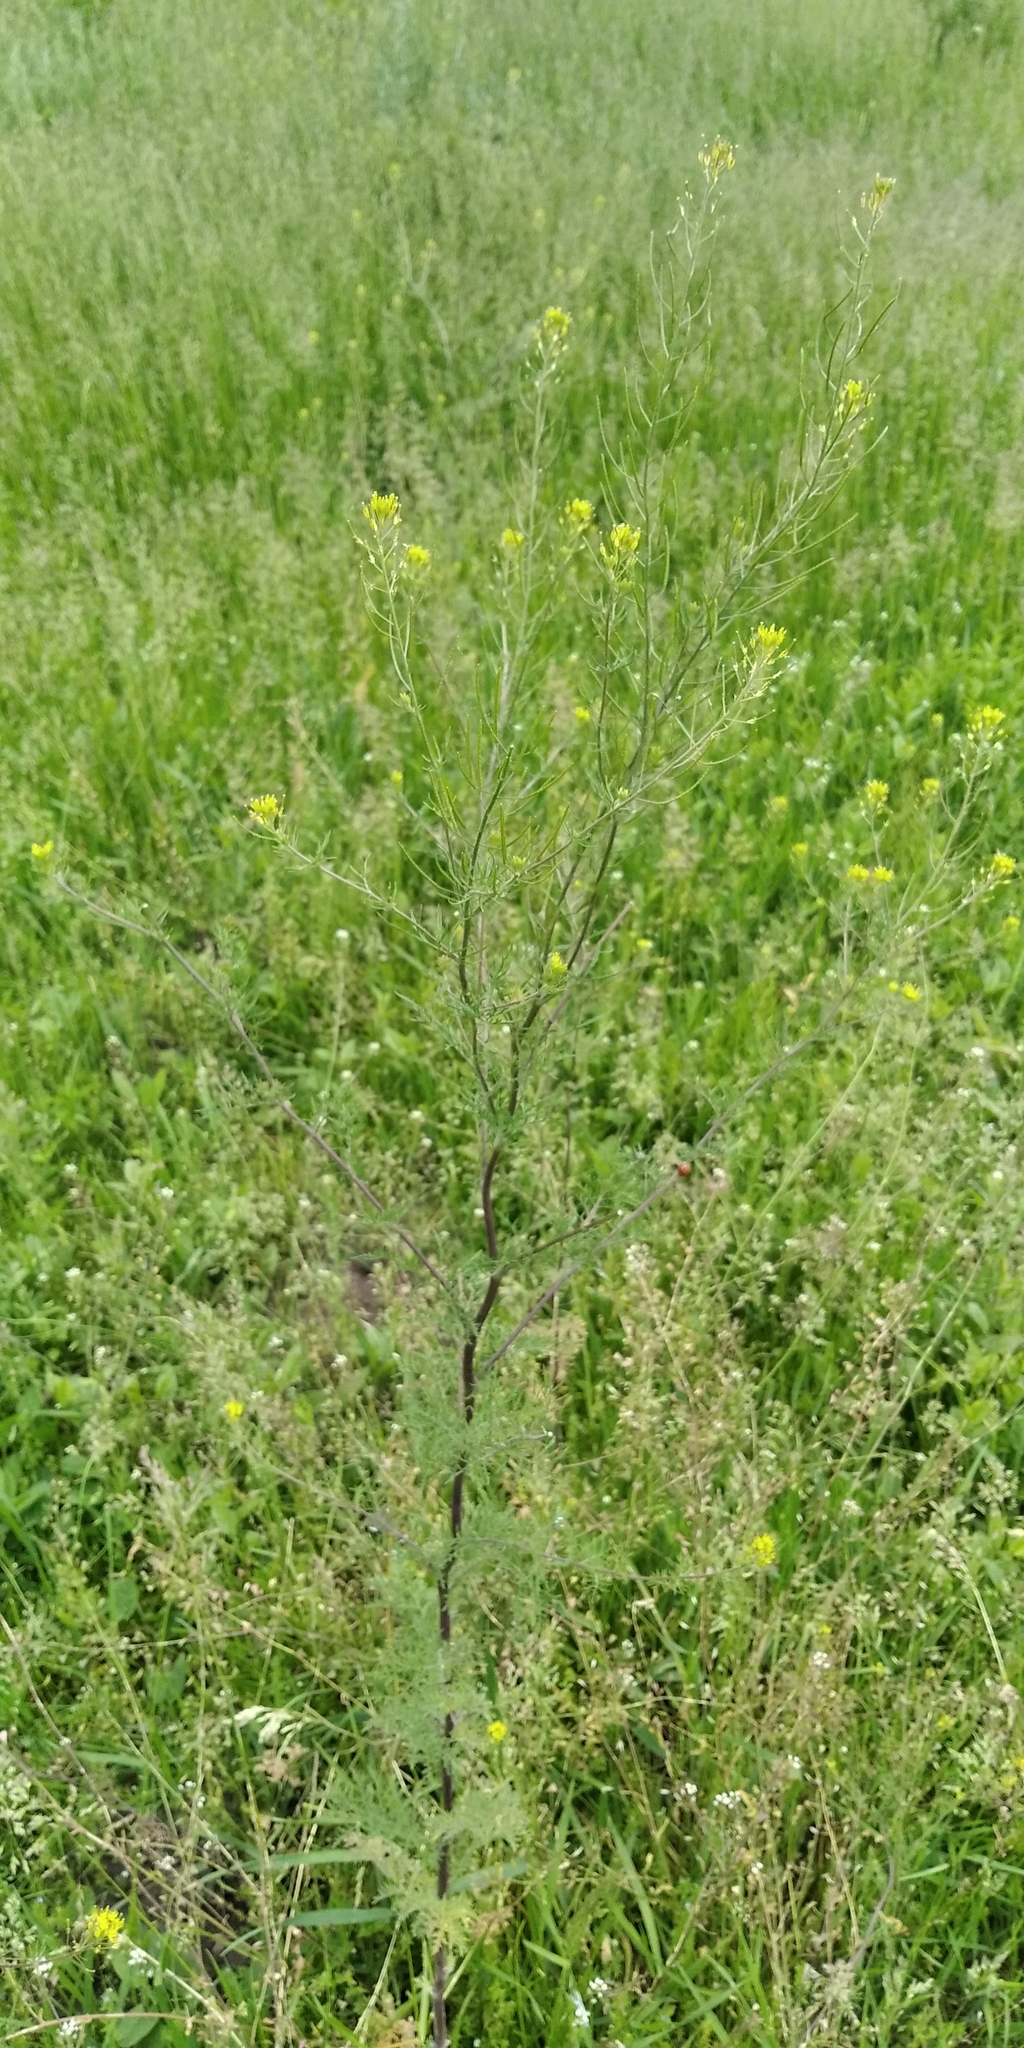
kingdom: Animalia
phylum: Arthropoda
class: Insecta
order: Coleoptera
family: Elateridae
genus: Actenicerus
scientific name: Actenicerus sjaelandicus
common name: Marsh click beetle
